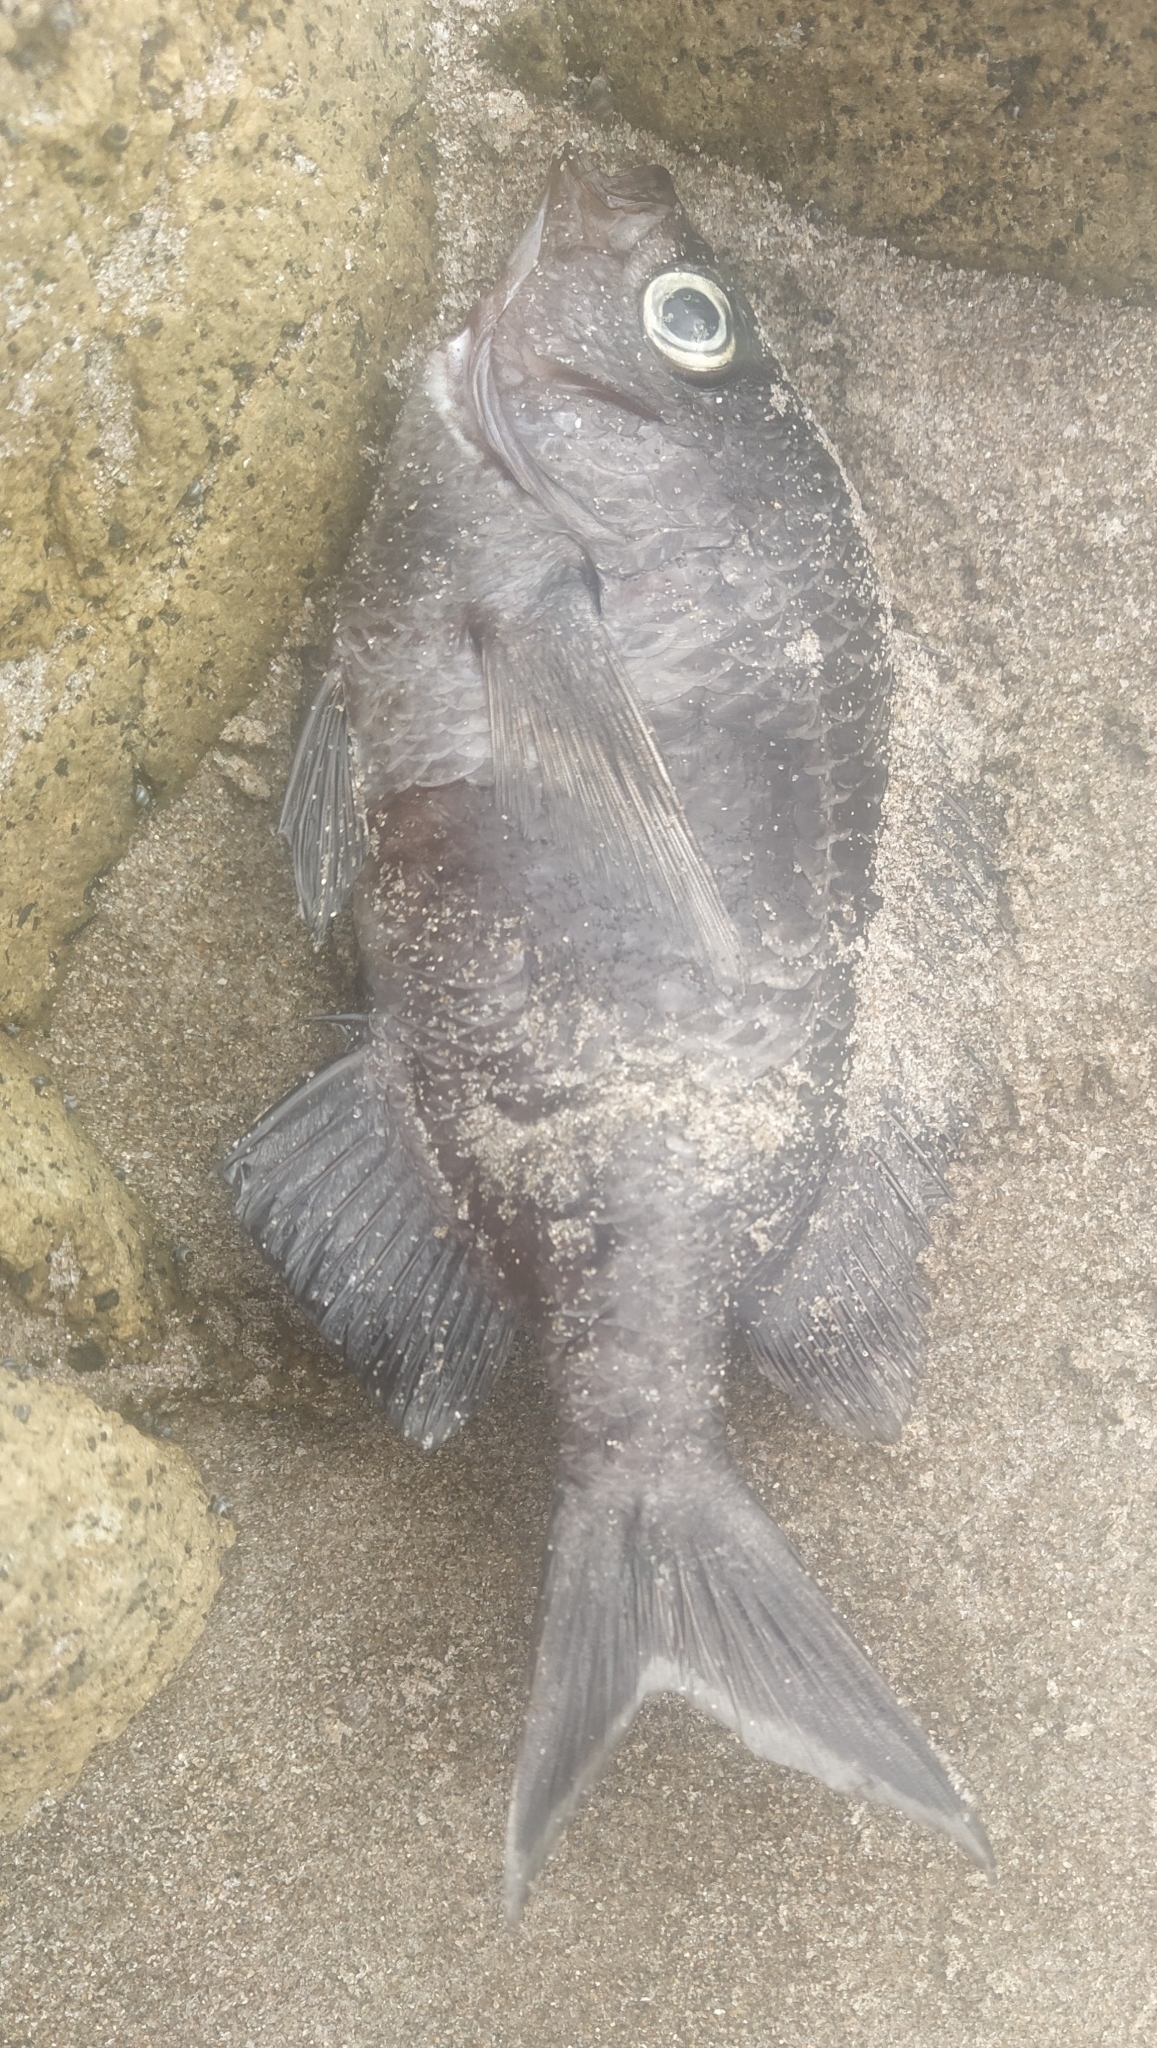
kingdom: Animalia
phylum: Chordata
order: Perciformes
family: Pomacentridae
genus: Chromis
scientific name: Chromis dispilus
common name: Demoiselle
